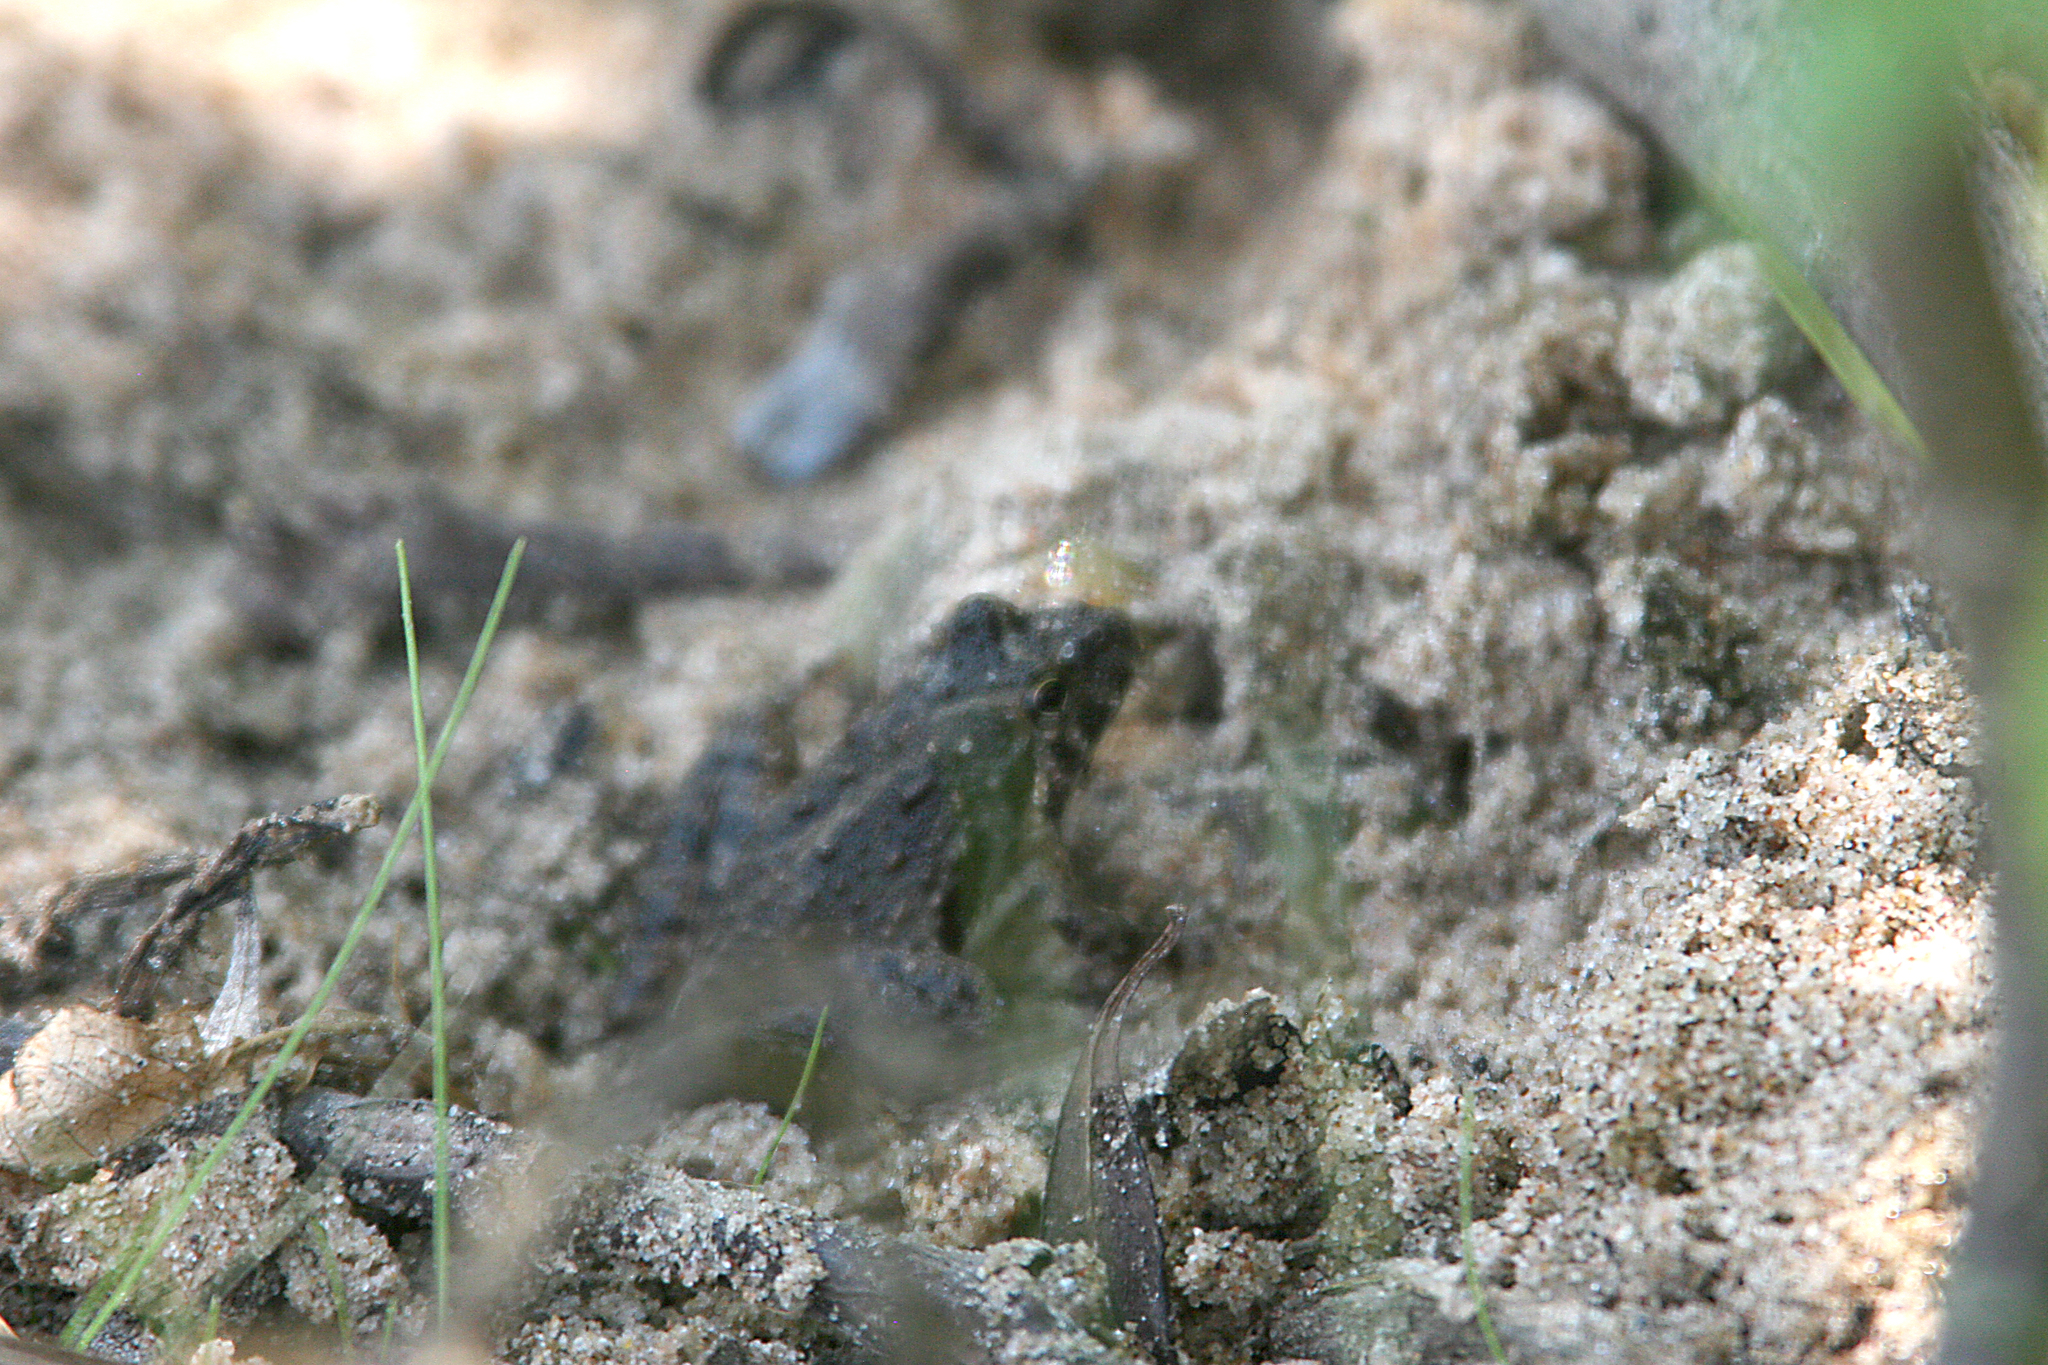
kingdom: Animalia
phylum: Chordata
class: Amphibia
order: Anura
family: Hylidae
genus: Acris
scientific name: Acris blanchardi
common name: Blanchard's cricket frog
